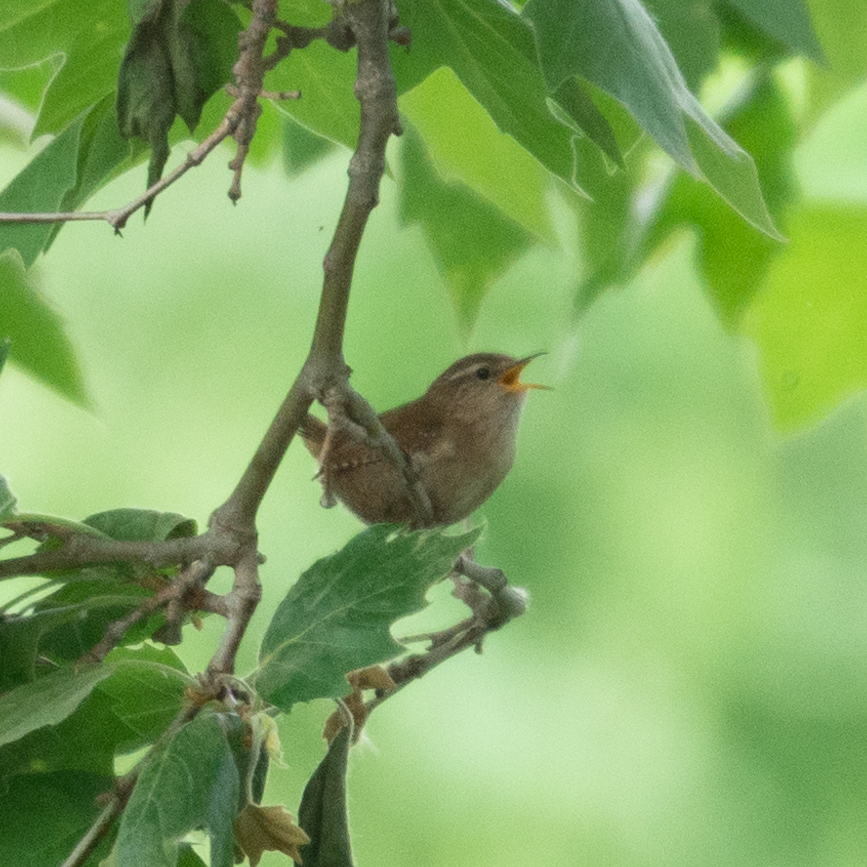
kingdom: Animalia
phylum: Chordata
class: Aves
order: Passeriformes
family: Troglodytidae
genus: Troglodytes
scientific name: Troglodytes troglodytes
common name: Eurasian wren
